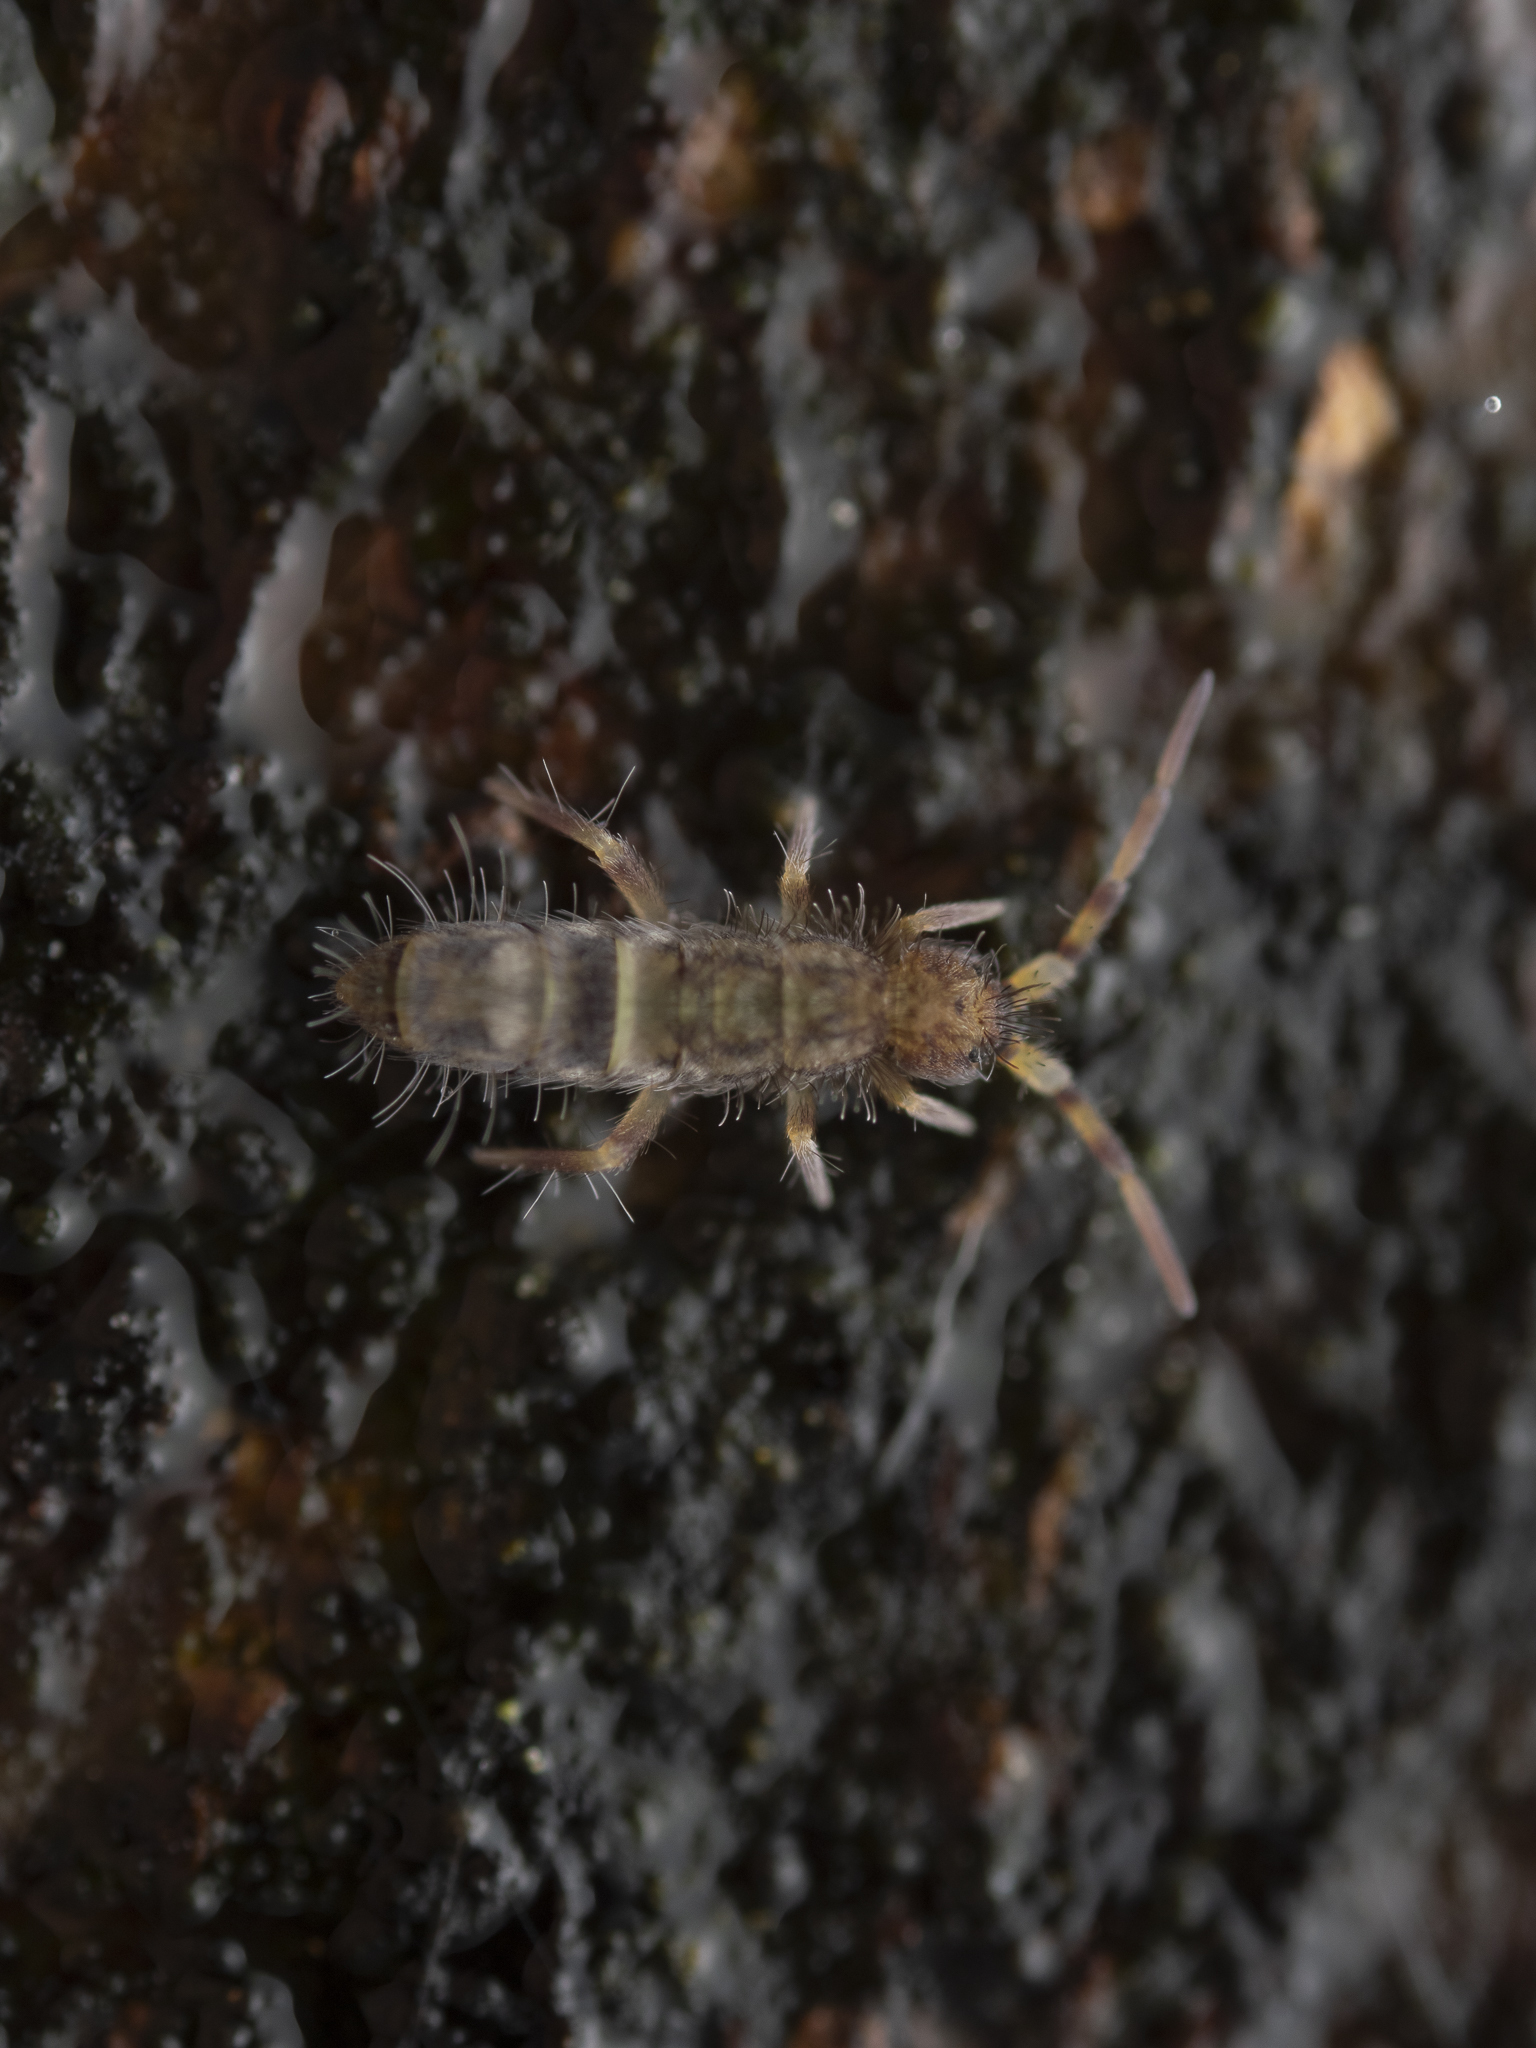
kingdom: Animalia
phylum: Arthropoda
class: Collembola
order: Entomobryomorpha
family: Orchesellidae
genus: Orchesella
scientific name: Orchesella cincta
